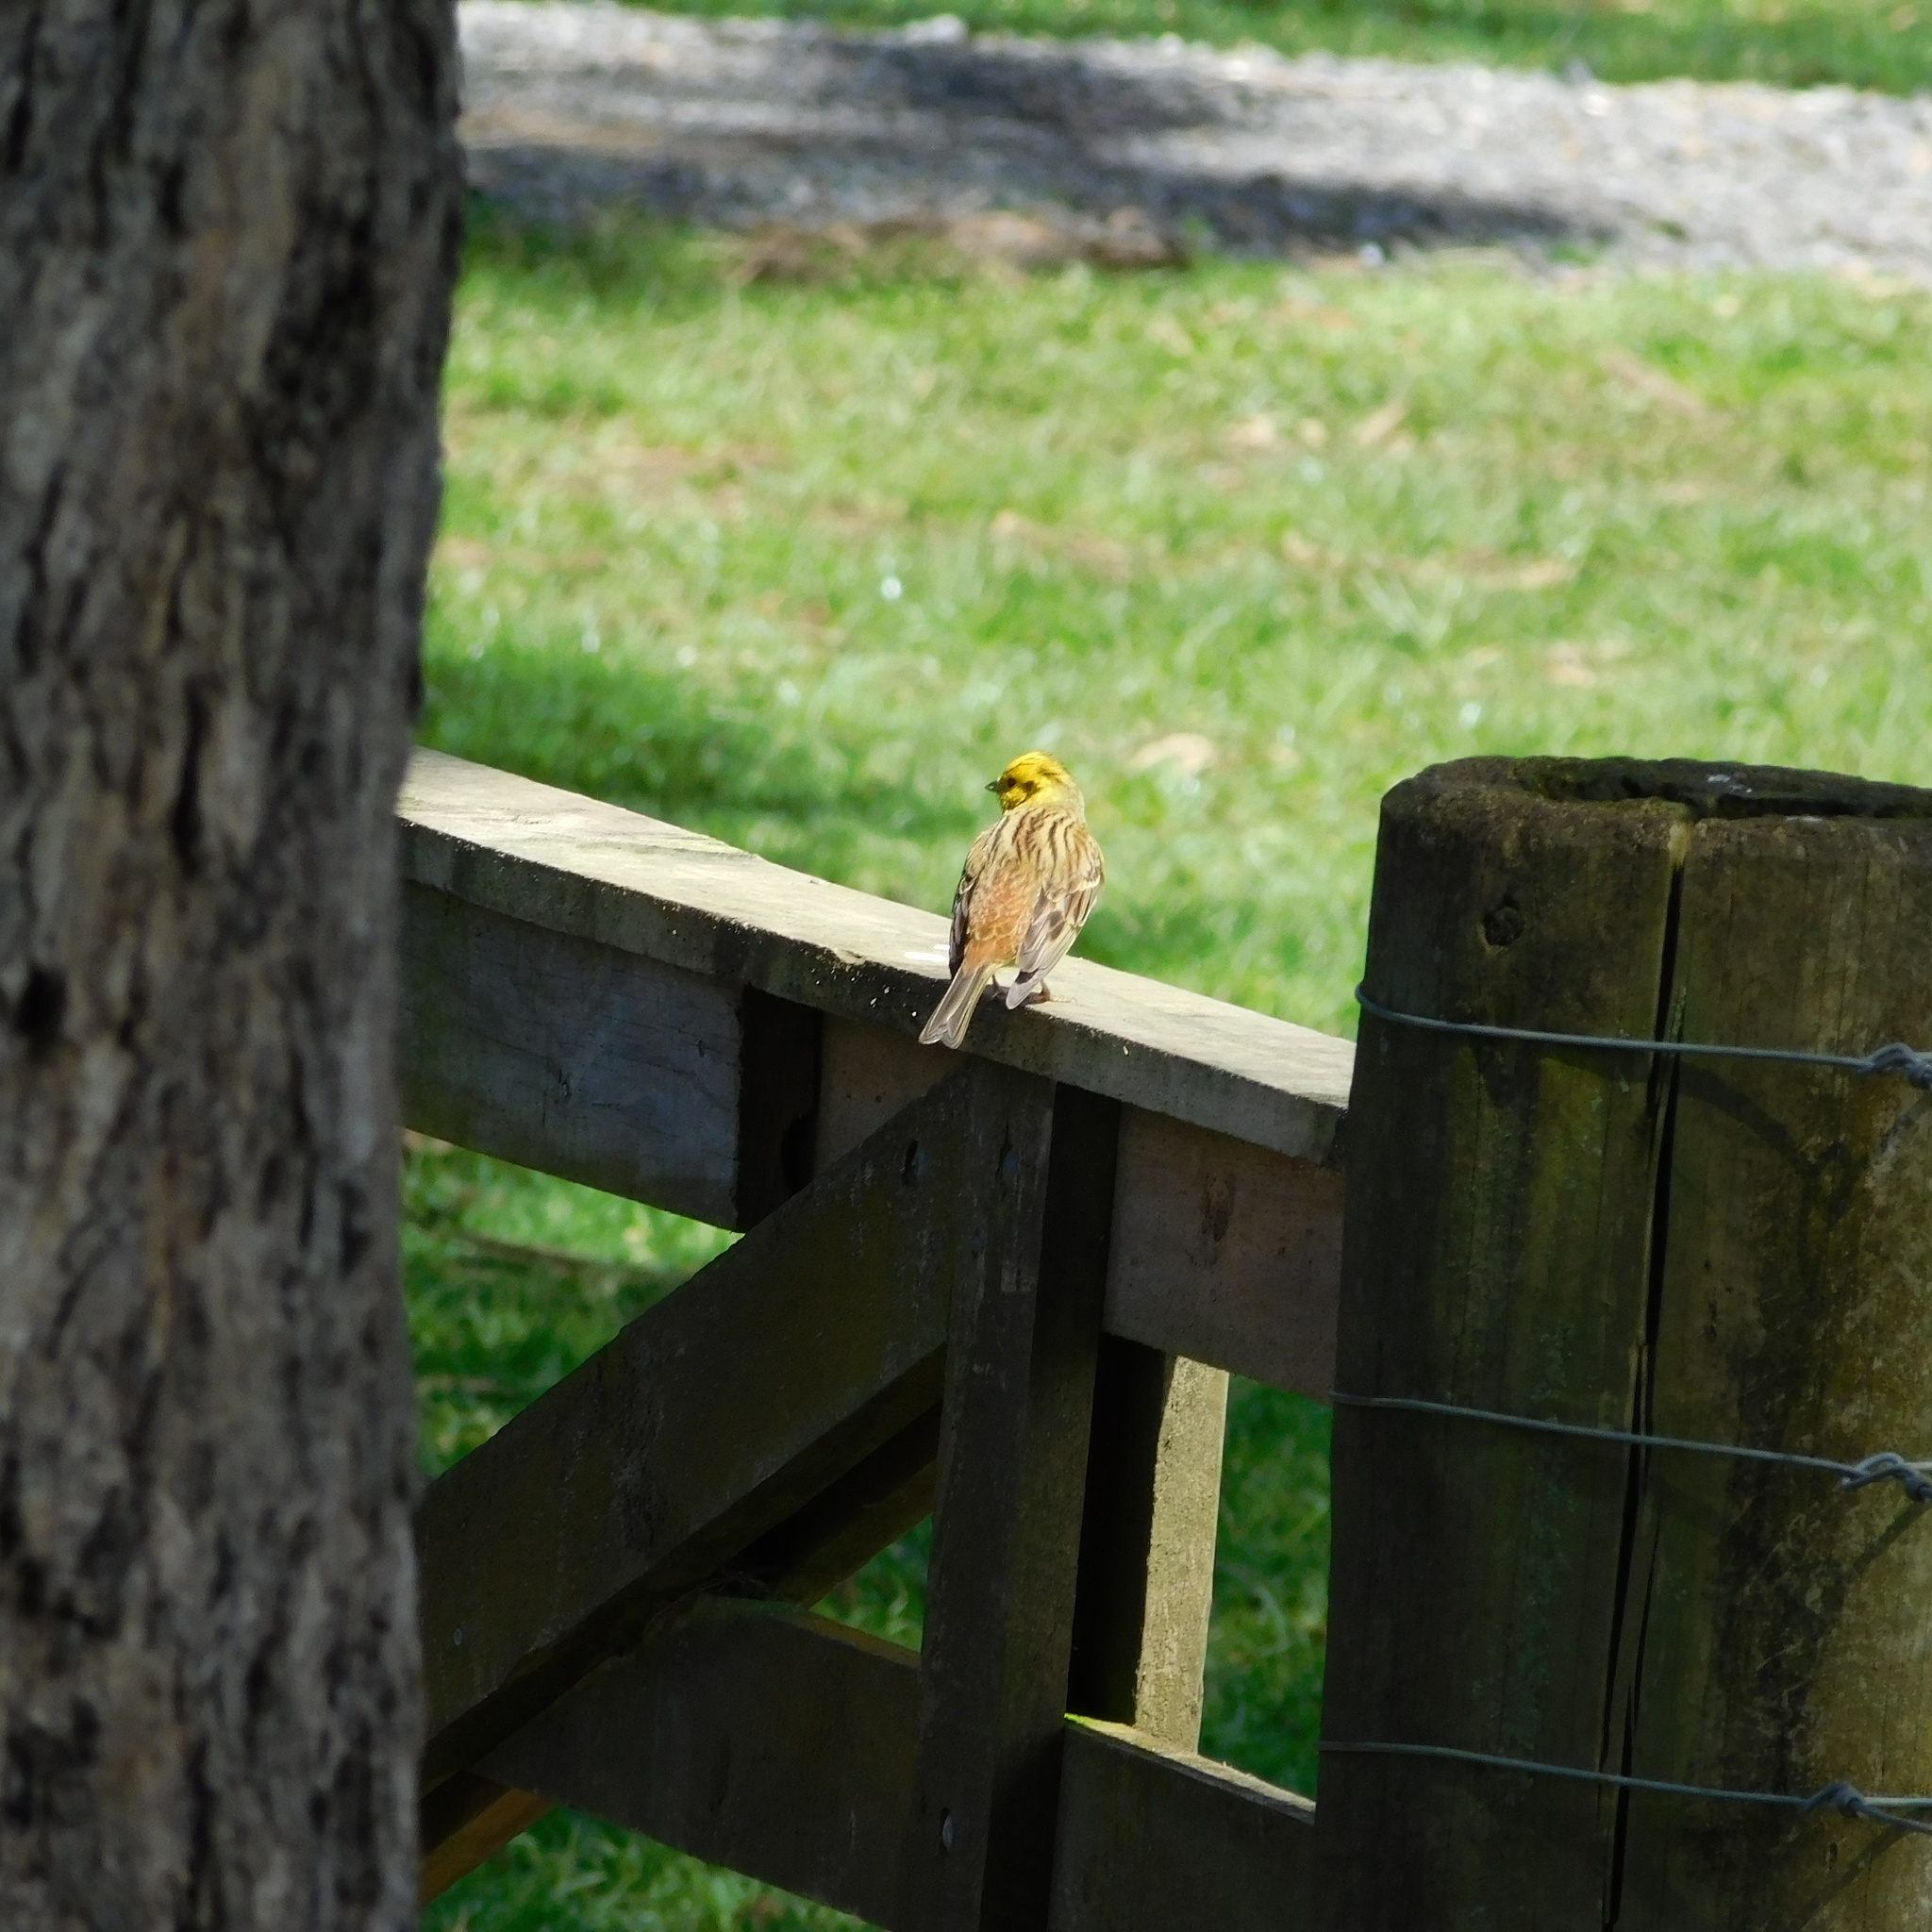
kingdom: Animalia
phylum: Chordata
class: Aves
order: Passeriformes
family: Emberizidae
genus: Emberiza
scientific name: Emberiza citrinella
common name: Yellowhammer
